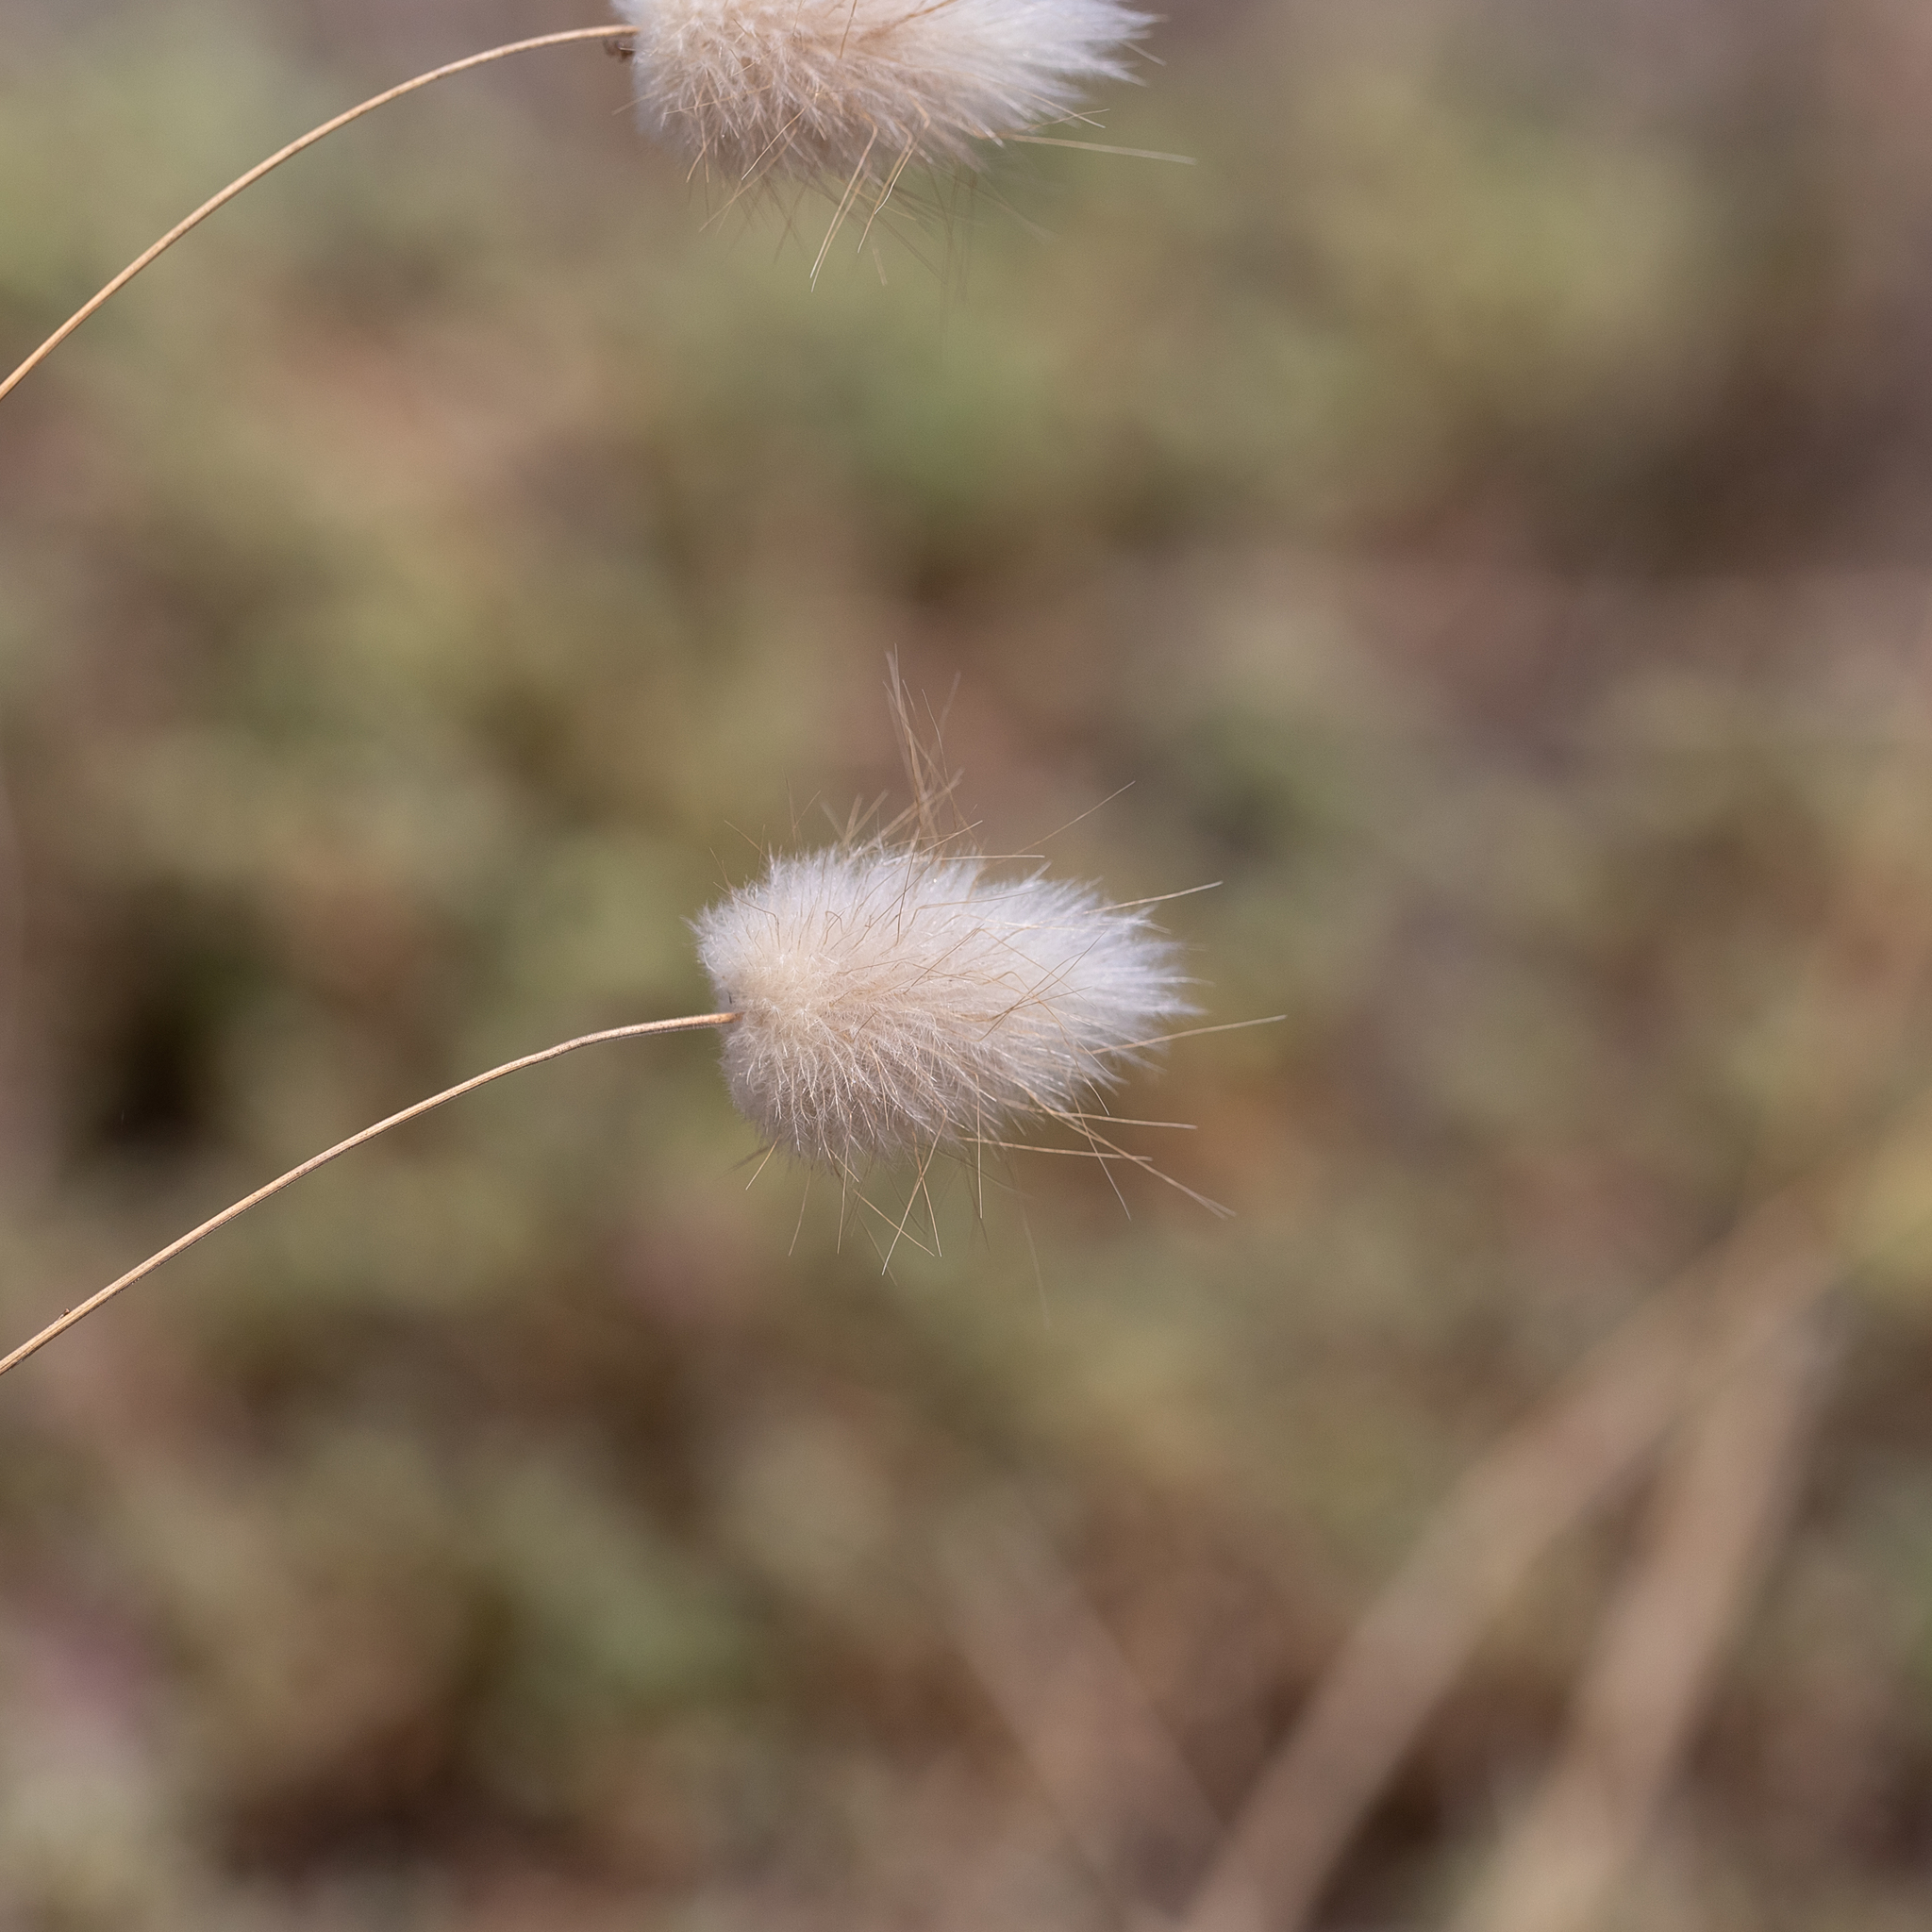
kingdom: Plantae
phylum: Tracheophyta
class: Liliopsida
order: Poales
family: Poaceae
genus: Lagurus
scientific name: Lagurus ovatus
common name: Hare's-tail
